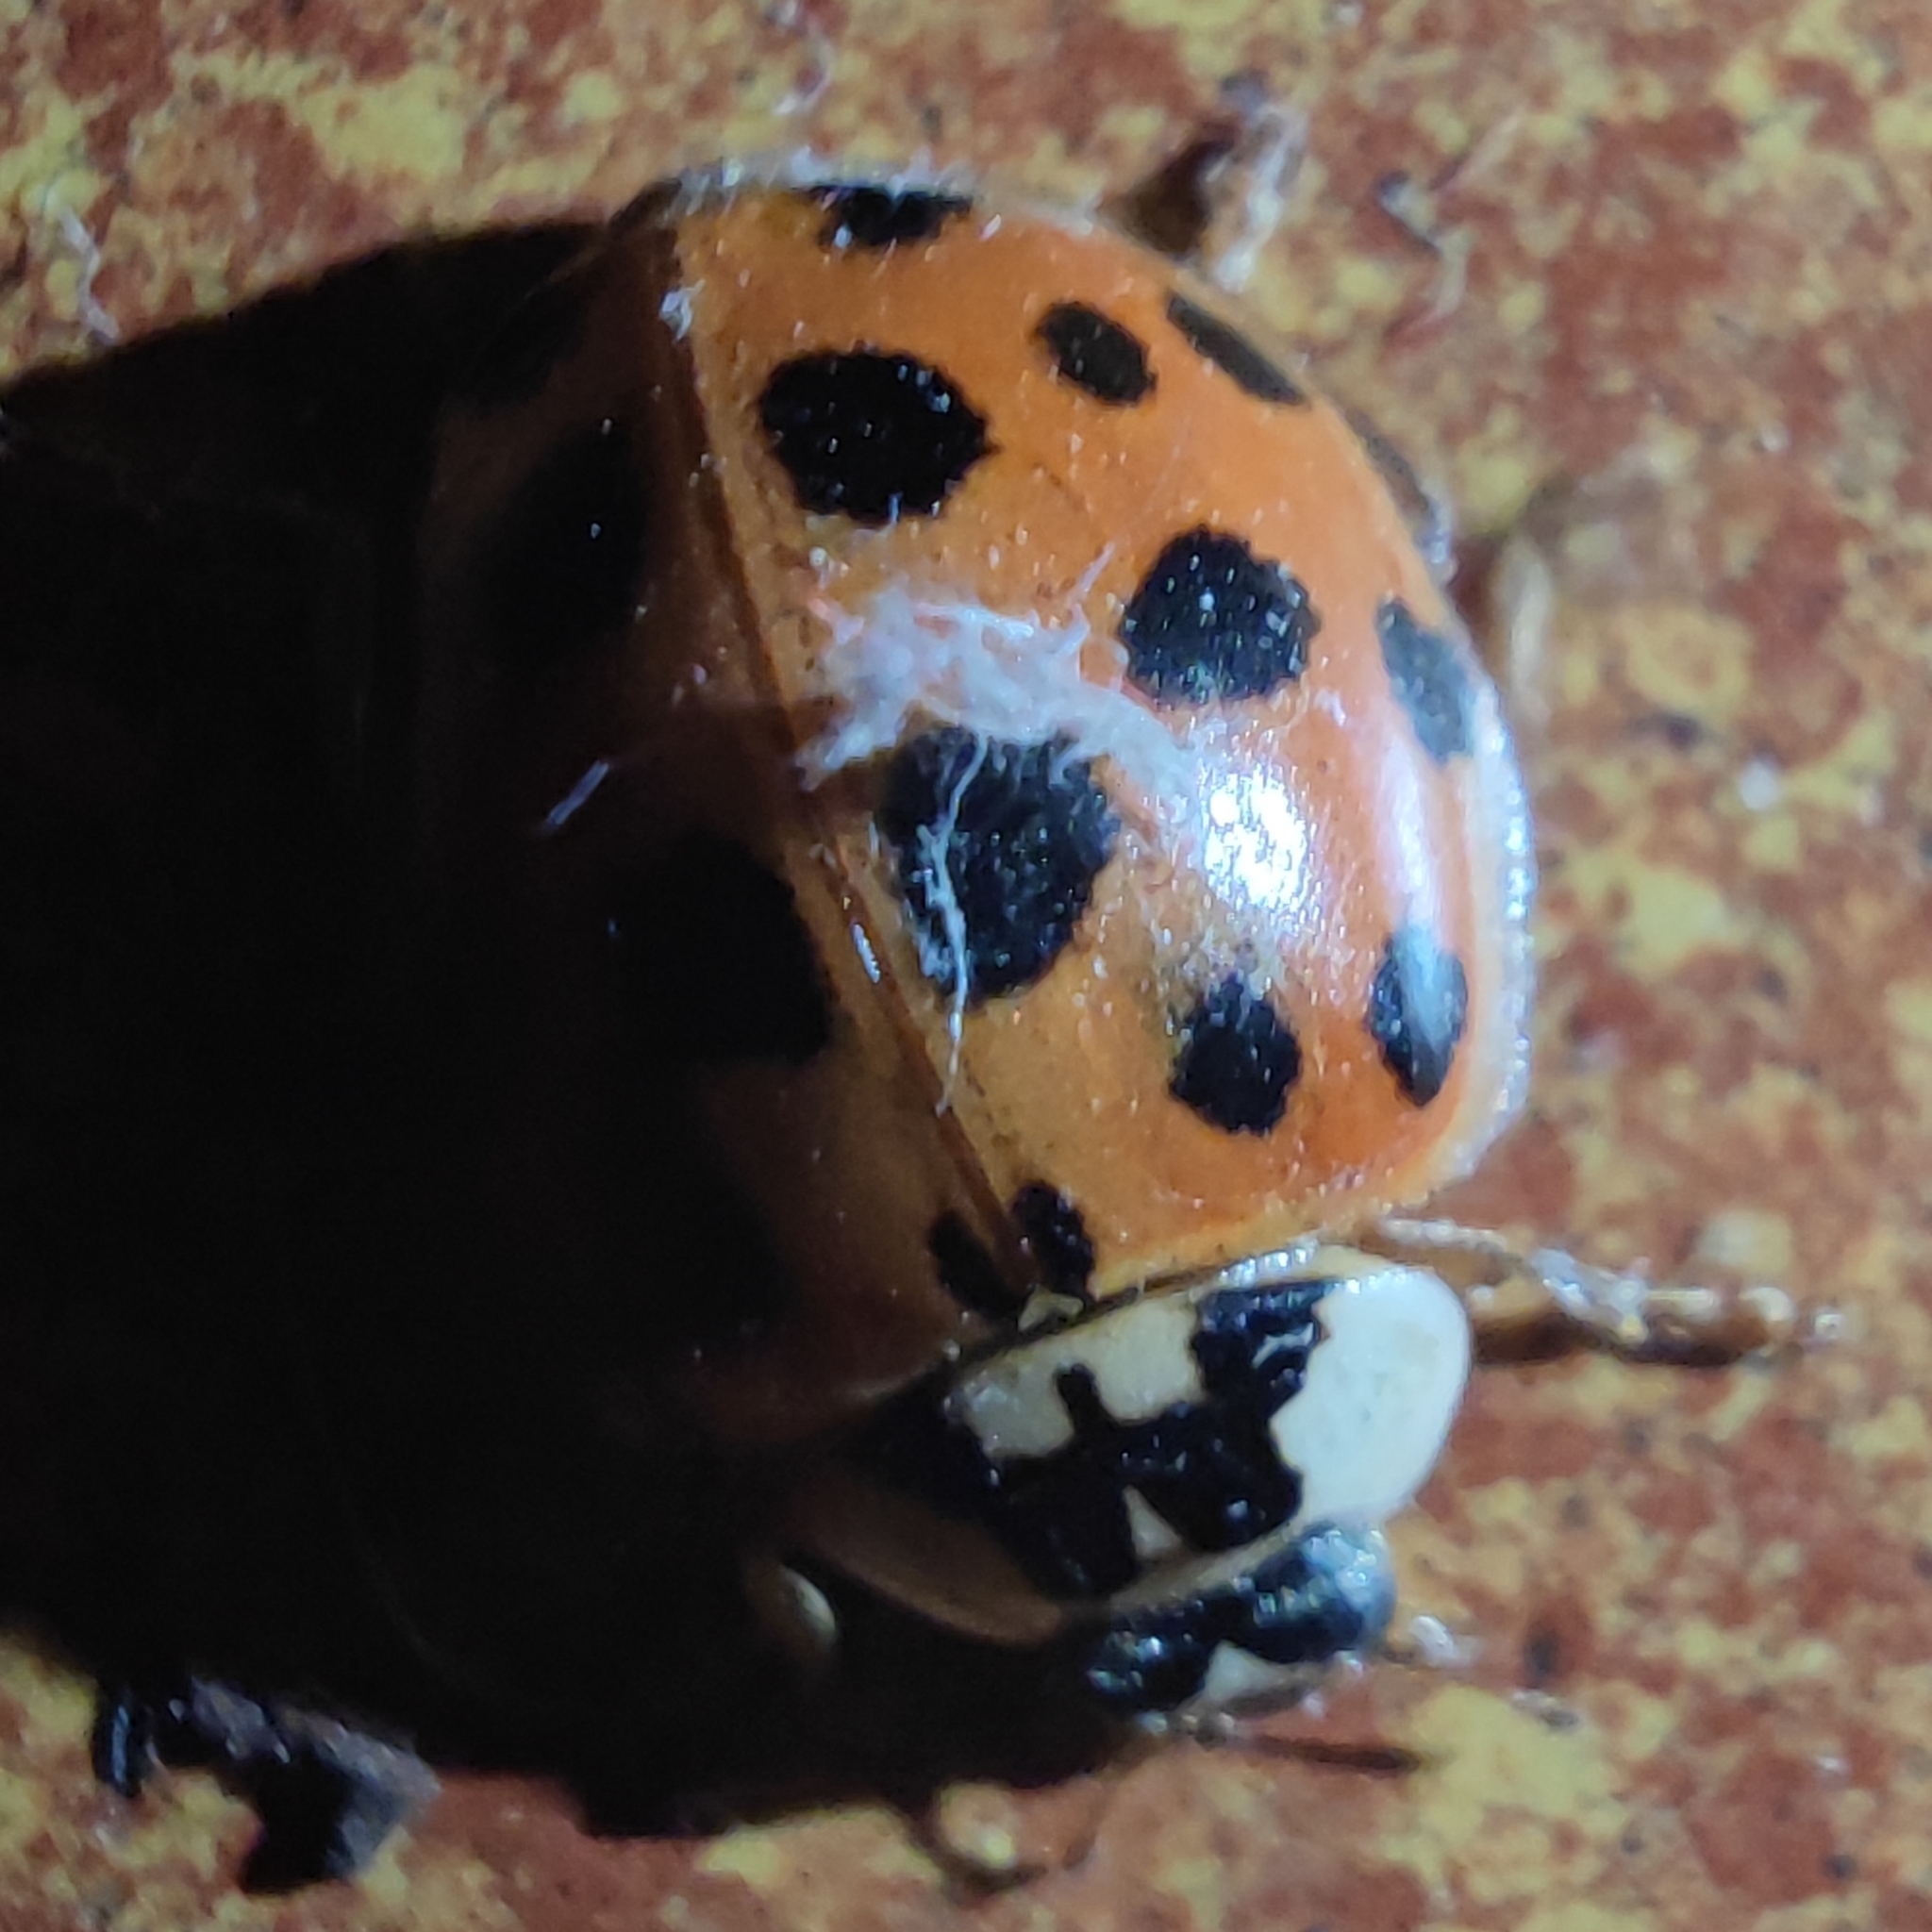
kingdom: Animalia
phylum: Arthropoda
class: Insecta
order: Coleoptera
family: Coccinellidae
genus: Harmonia
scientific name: Harmonia axyridis
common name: Harlequin ladybird
